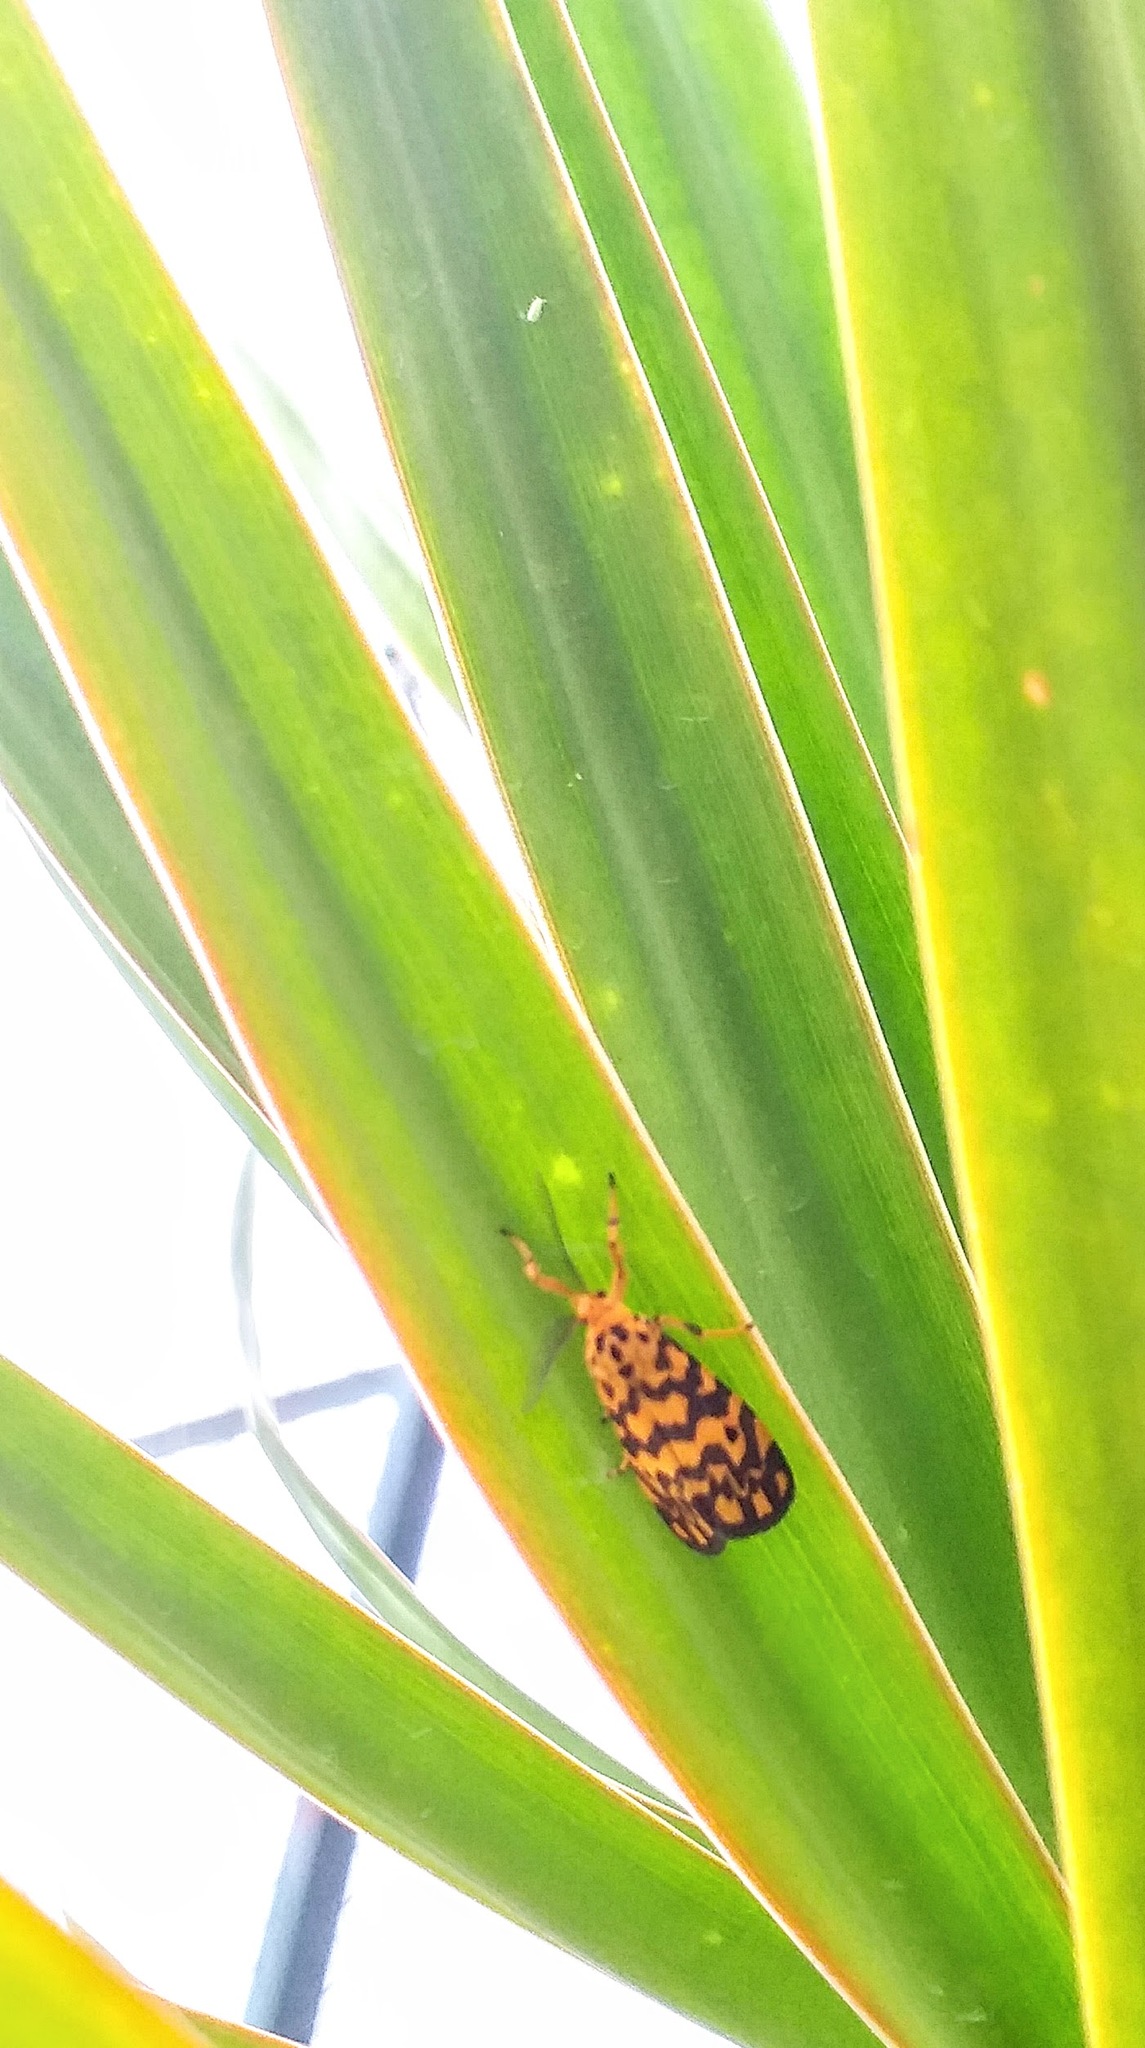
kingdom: Animalia
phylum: Arthropoda
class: Insecta
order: Lepidoptera
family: Erebidae
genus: Nepita
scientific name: Nepita conferta
